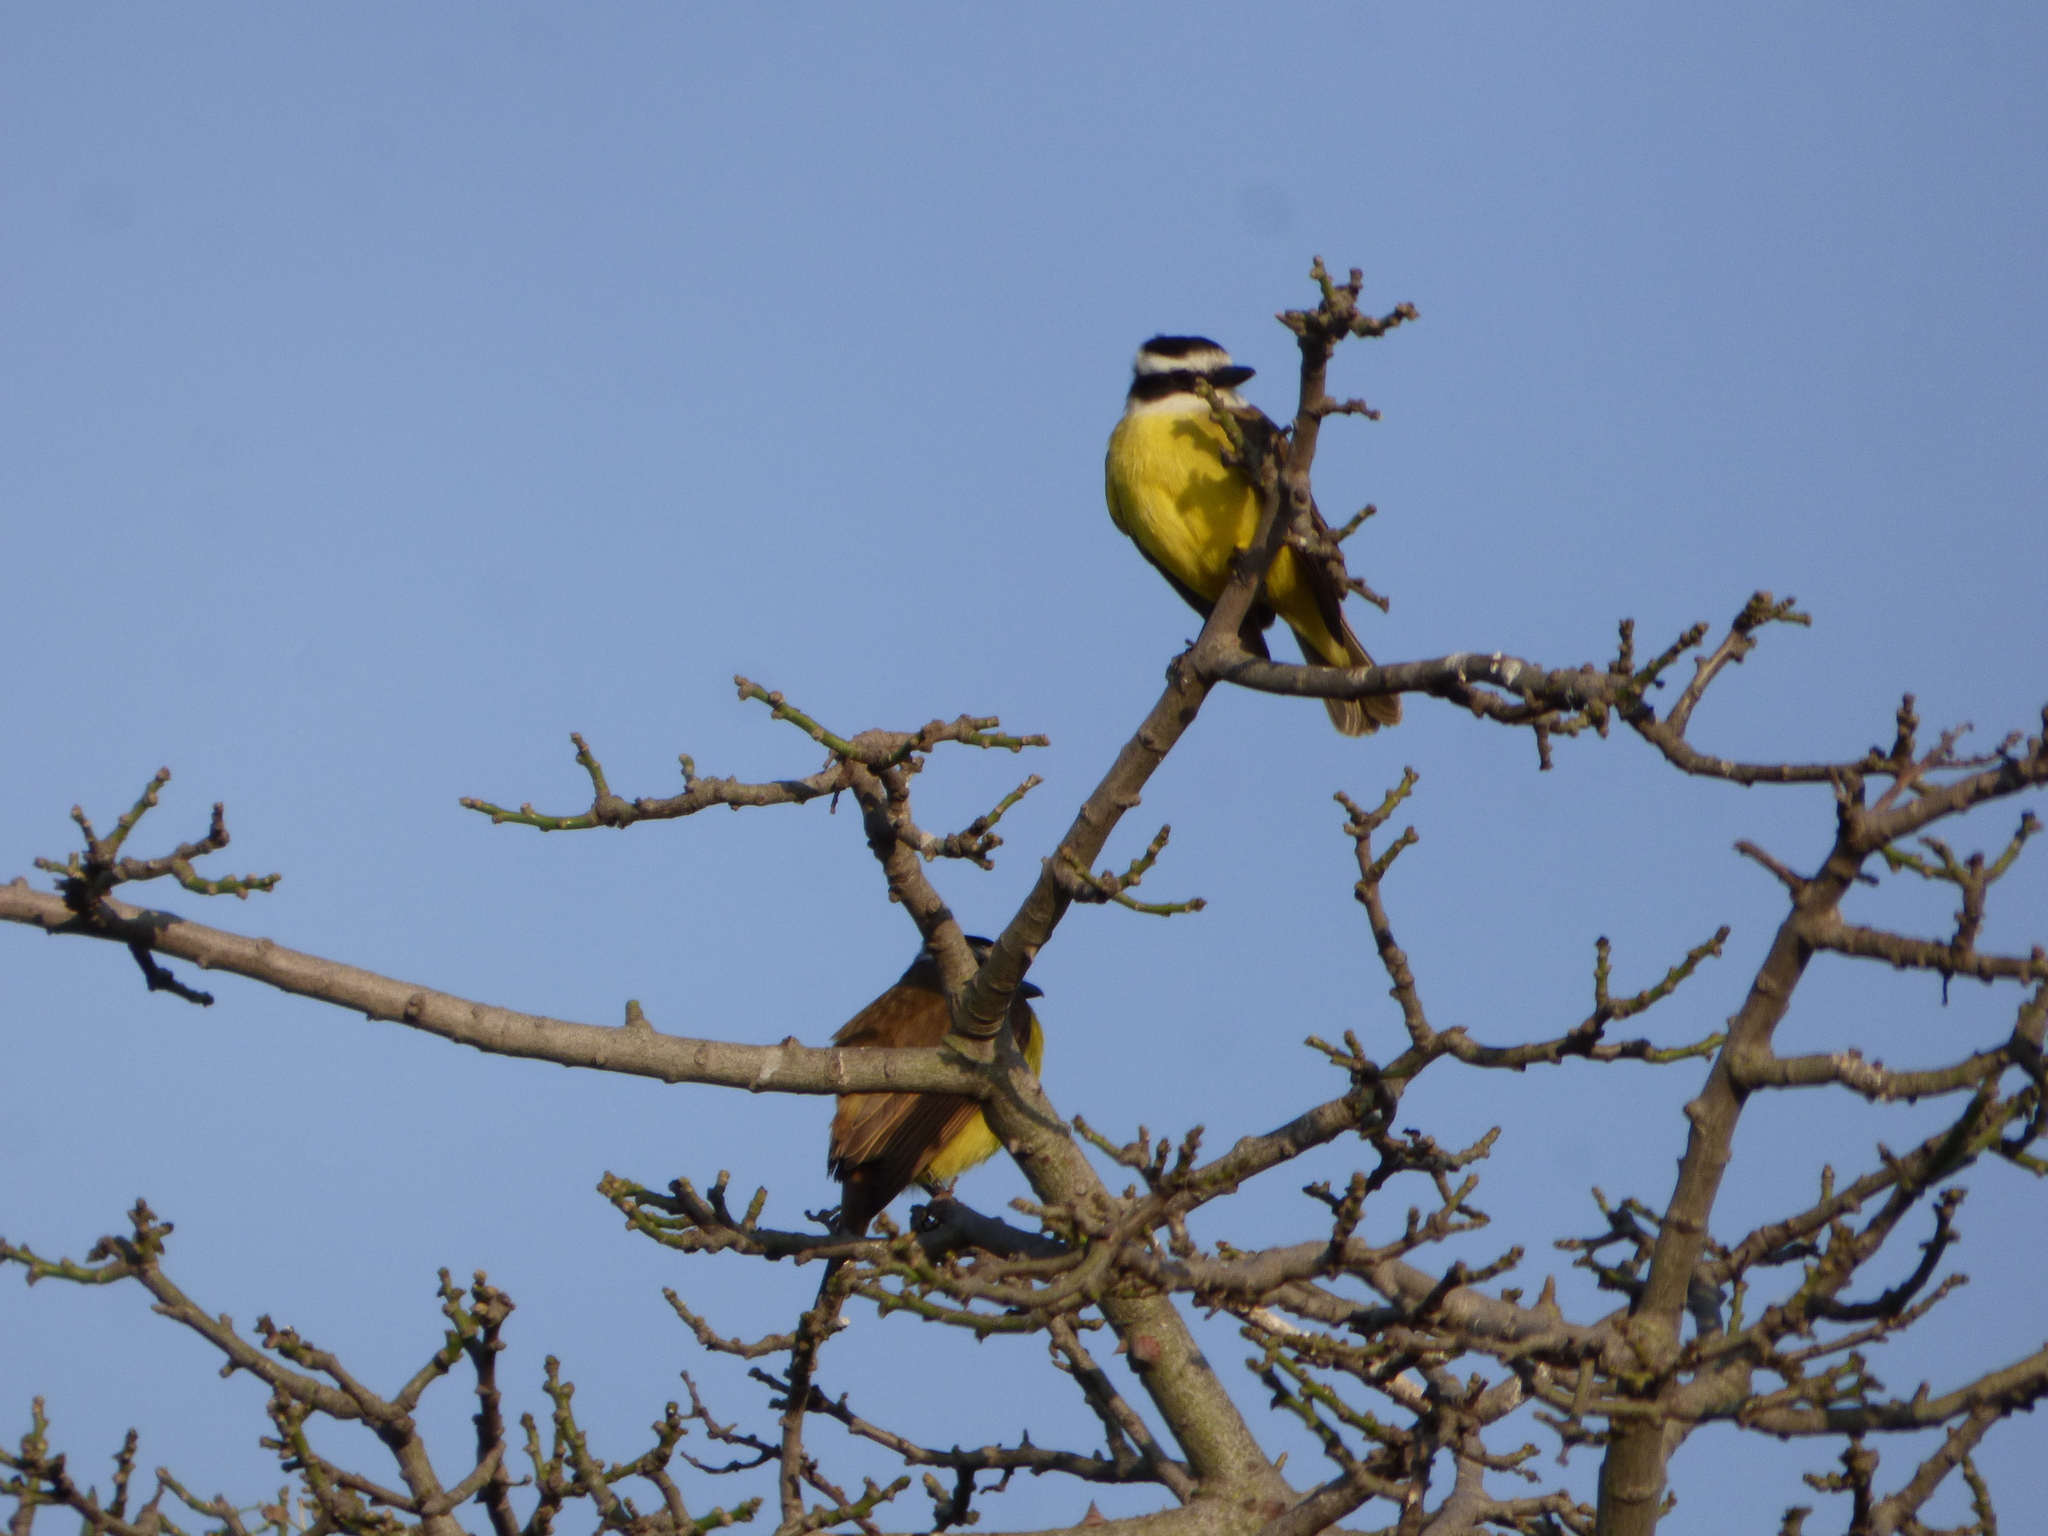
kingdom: Animalia
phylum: Chordata
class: Aves
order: Passeriformes
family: Tyrannidae
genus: Pitangus
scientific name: Pitangus sulphuratus
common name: Great kiskadee
